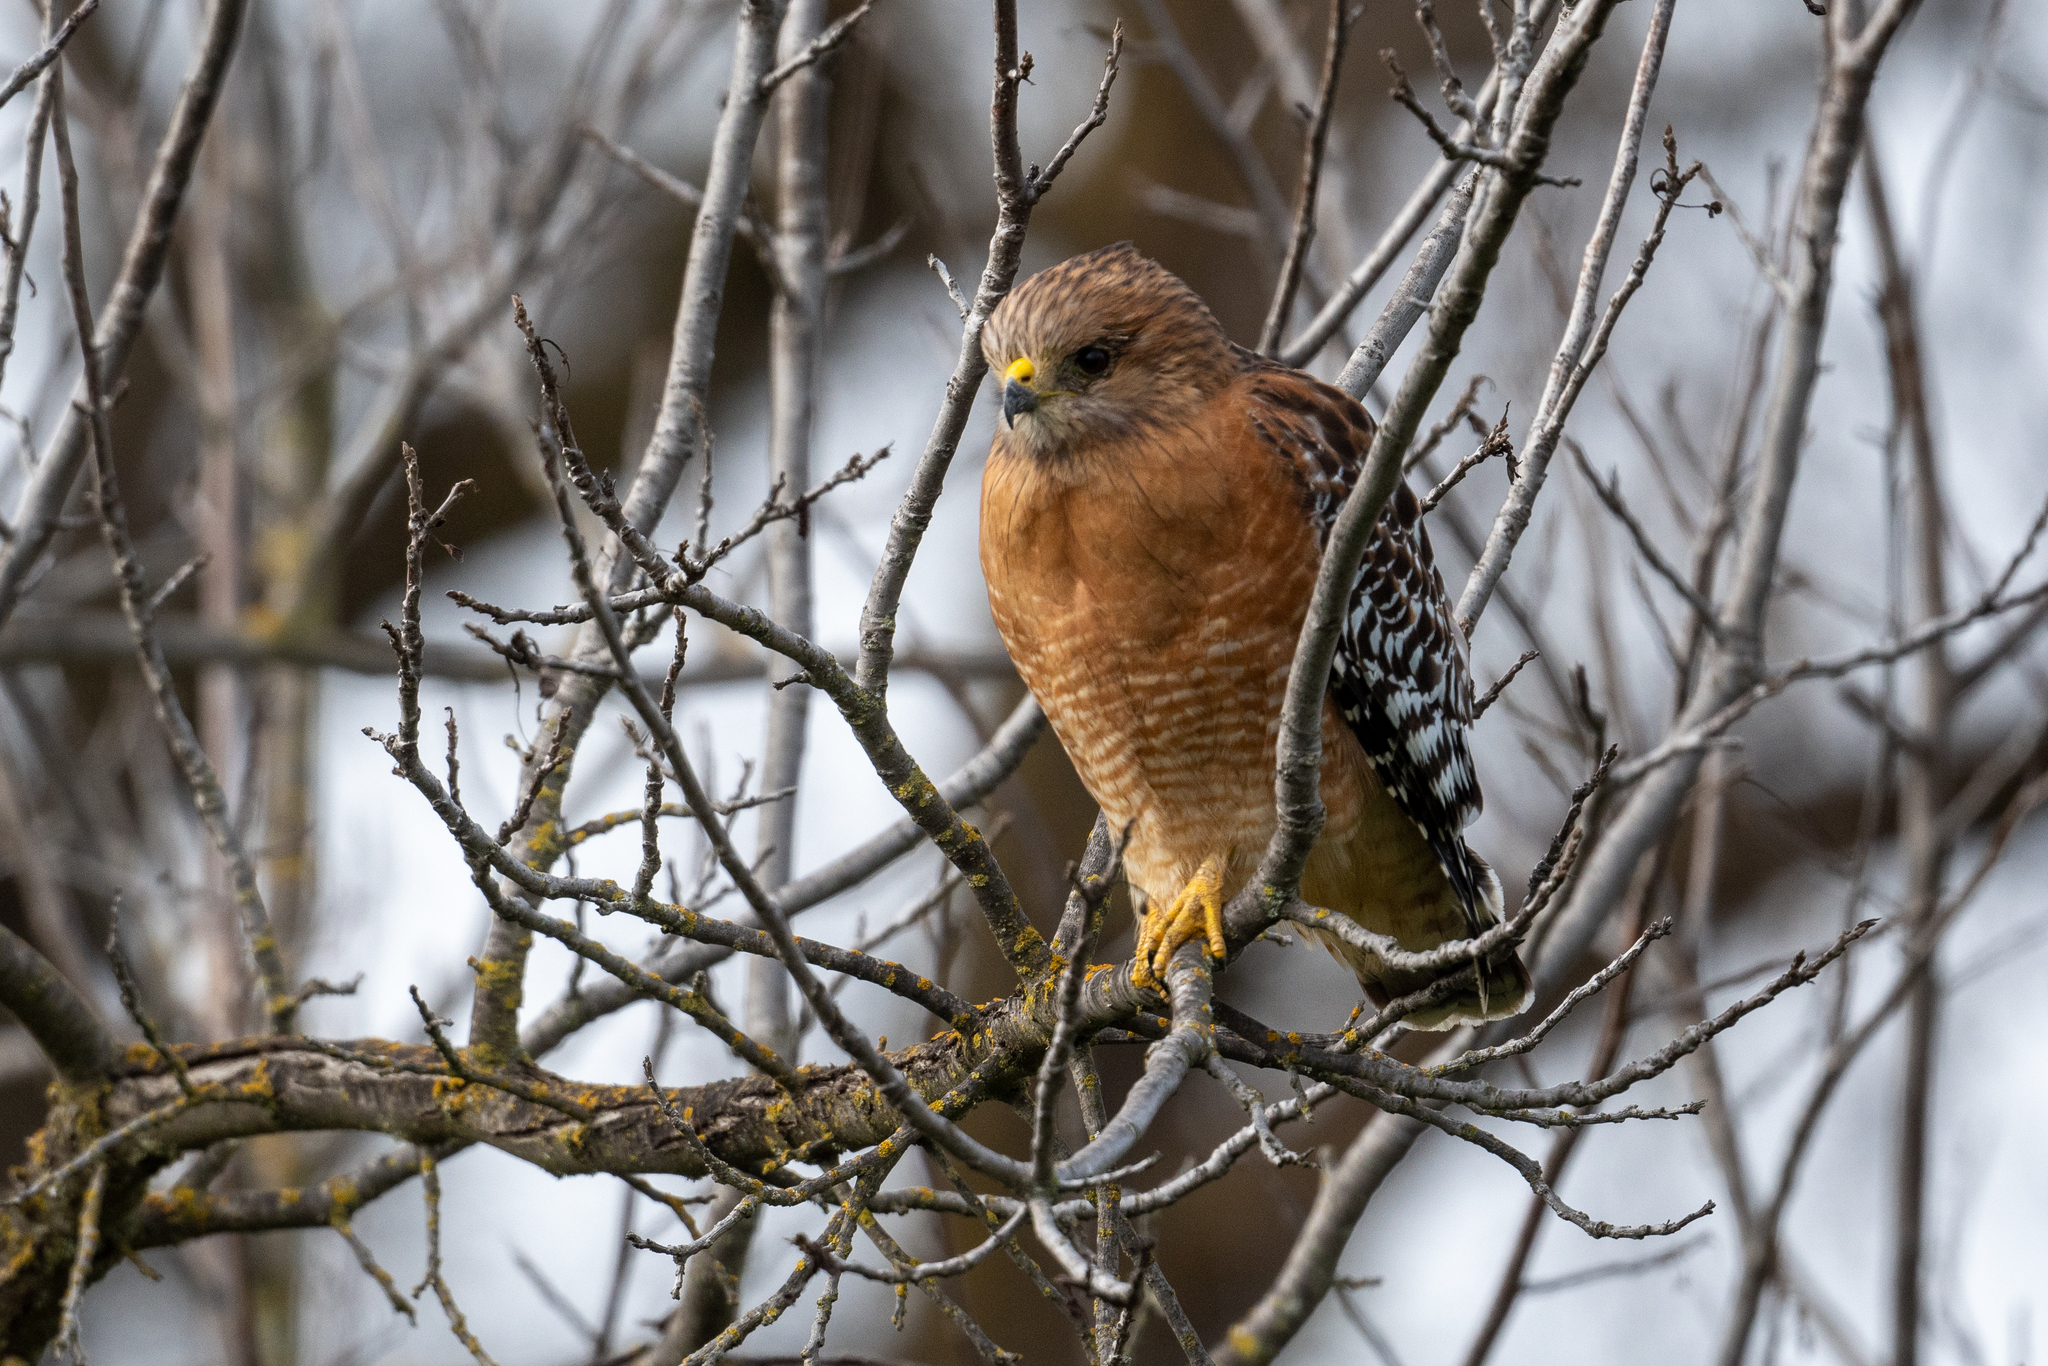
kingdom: Animalia
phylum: Chordata
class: Aves
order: Accipitriformes
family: Accipitridae
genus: Buteo
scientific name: Buteo lineatus
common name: Red-shouldered hawk
